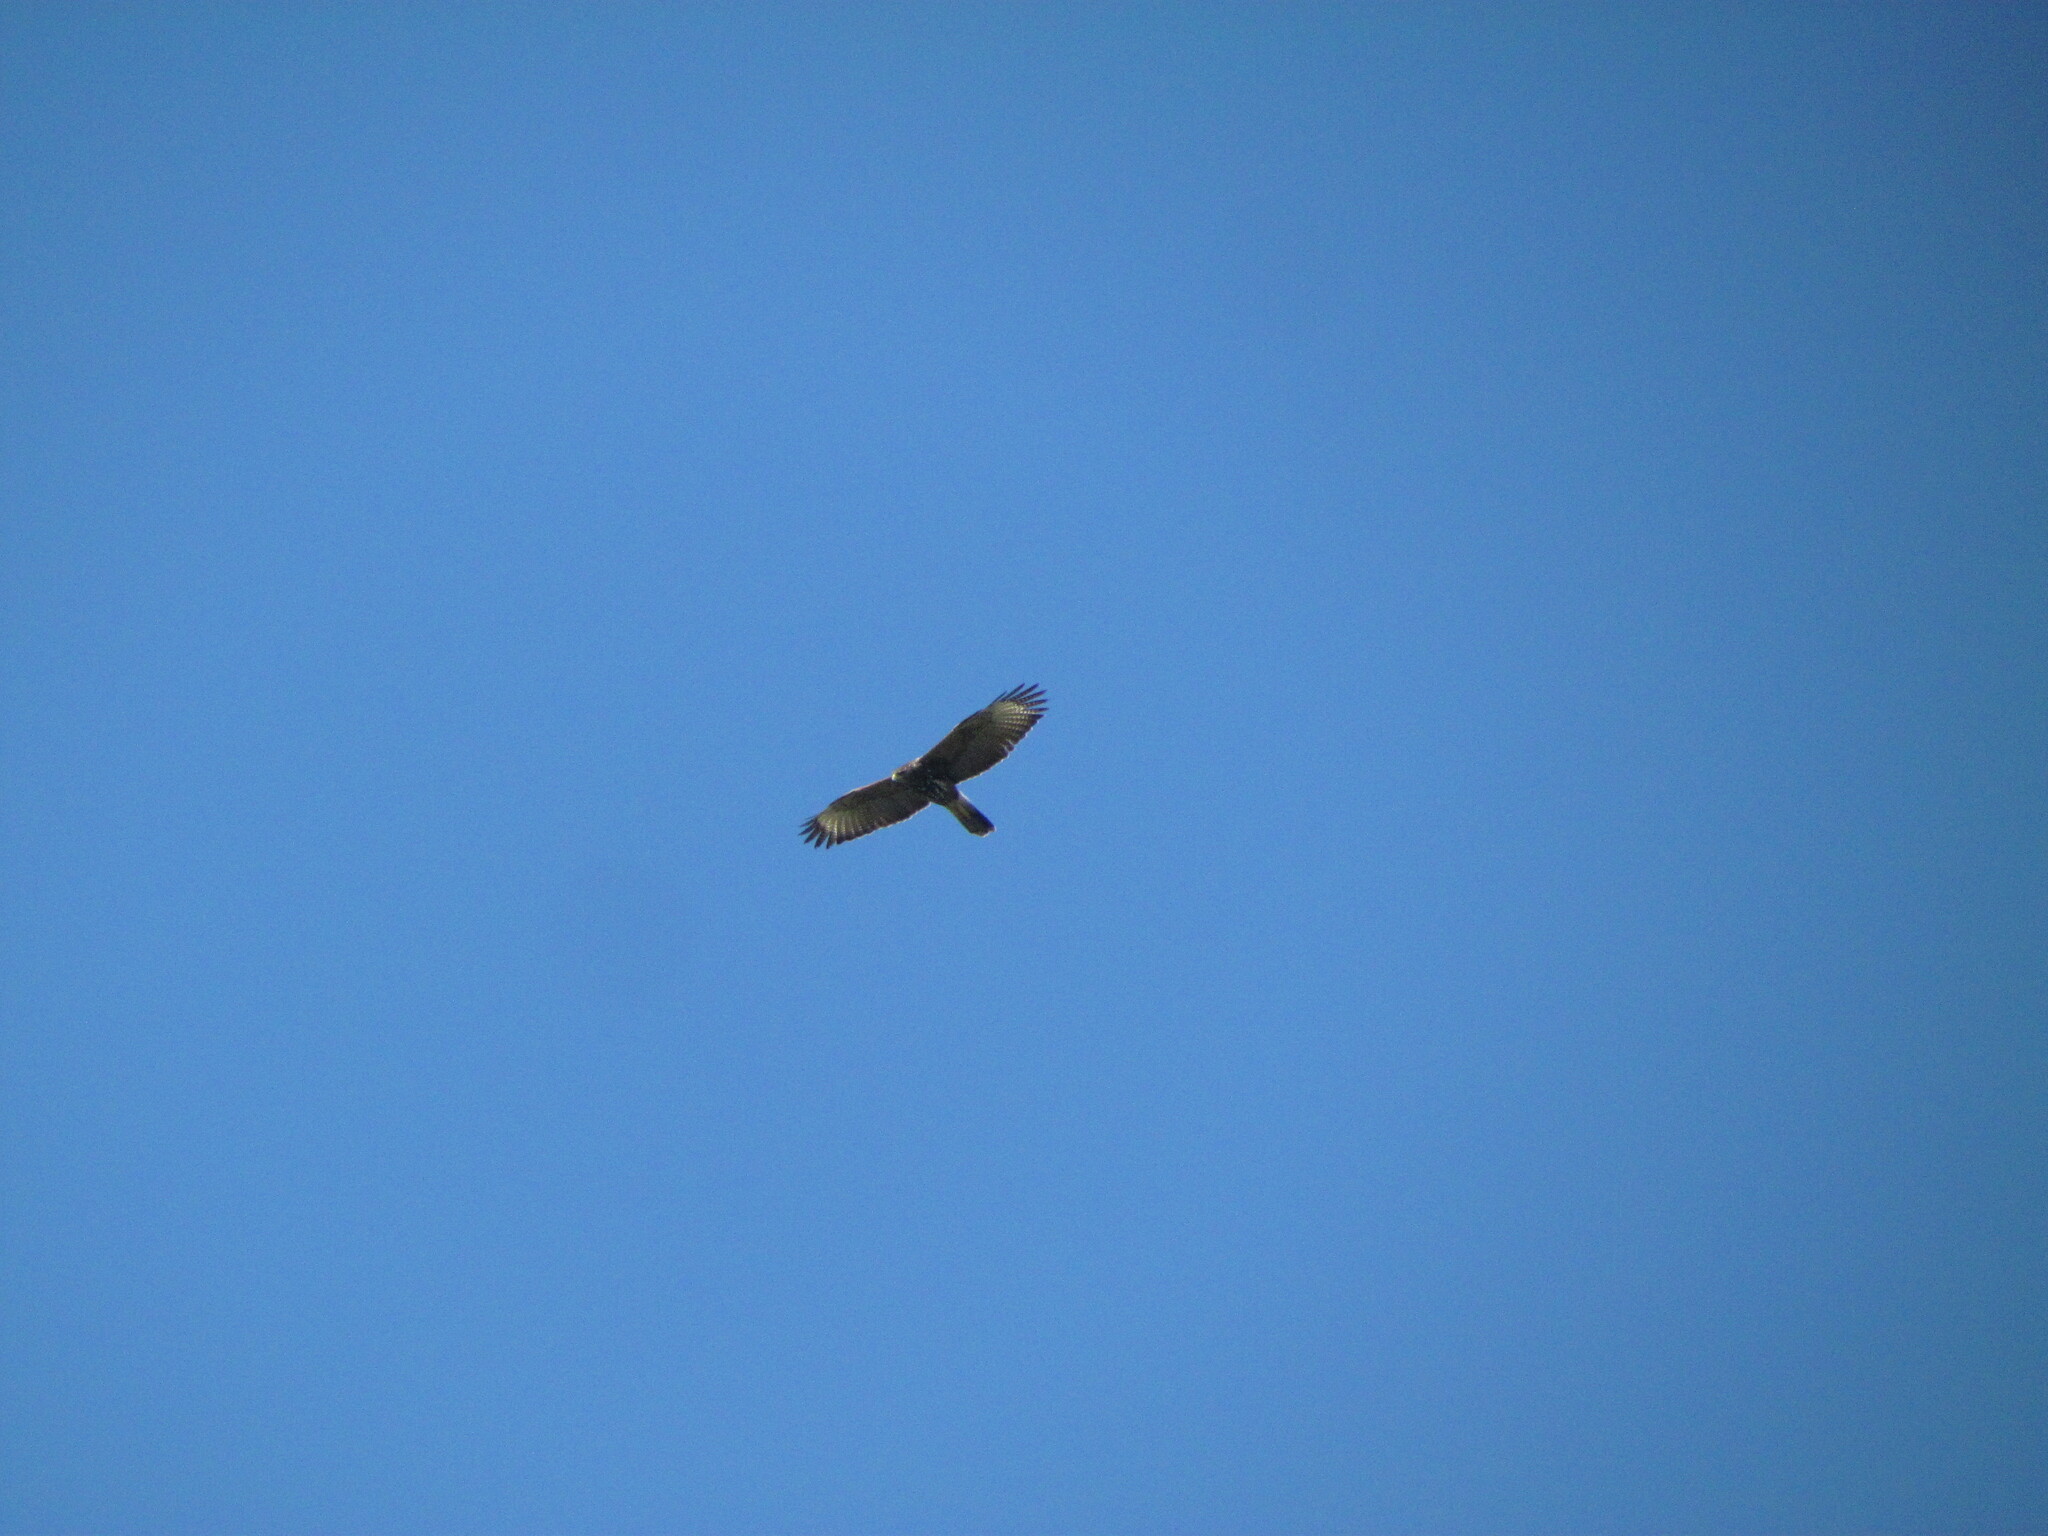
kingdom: Animalia
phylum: Chordata
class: Aves
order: Accipitriformes
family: Accipitridae
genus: Parabuteo
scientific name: Parabuteo unicinctus
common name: Harris's hawk
